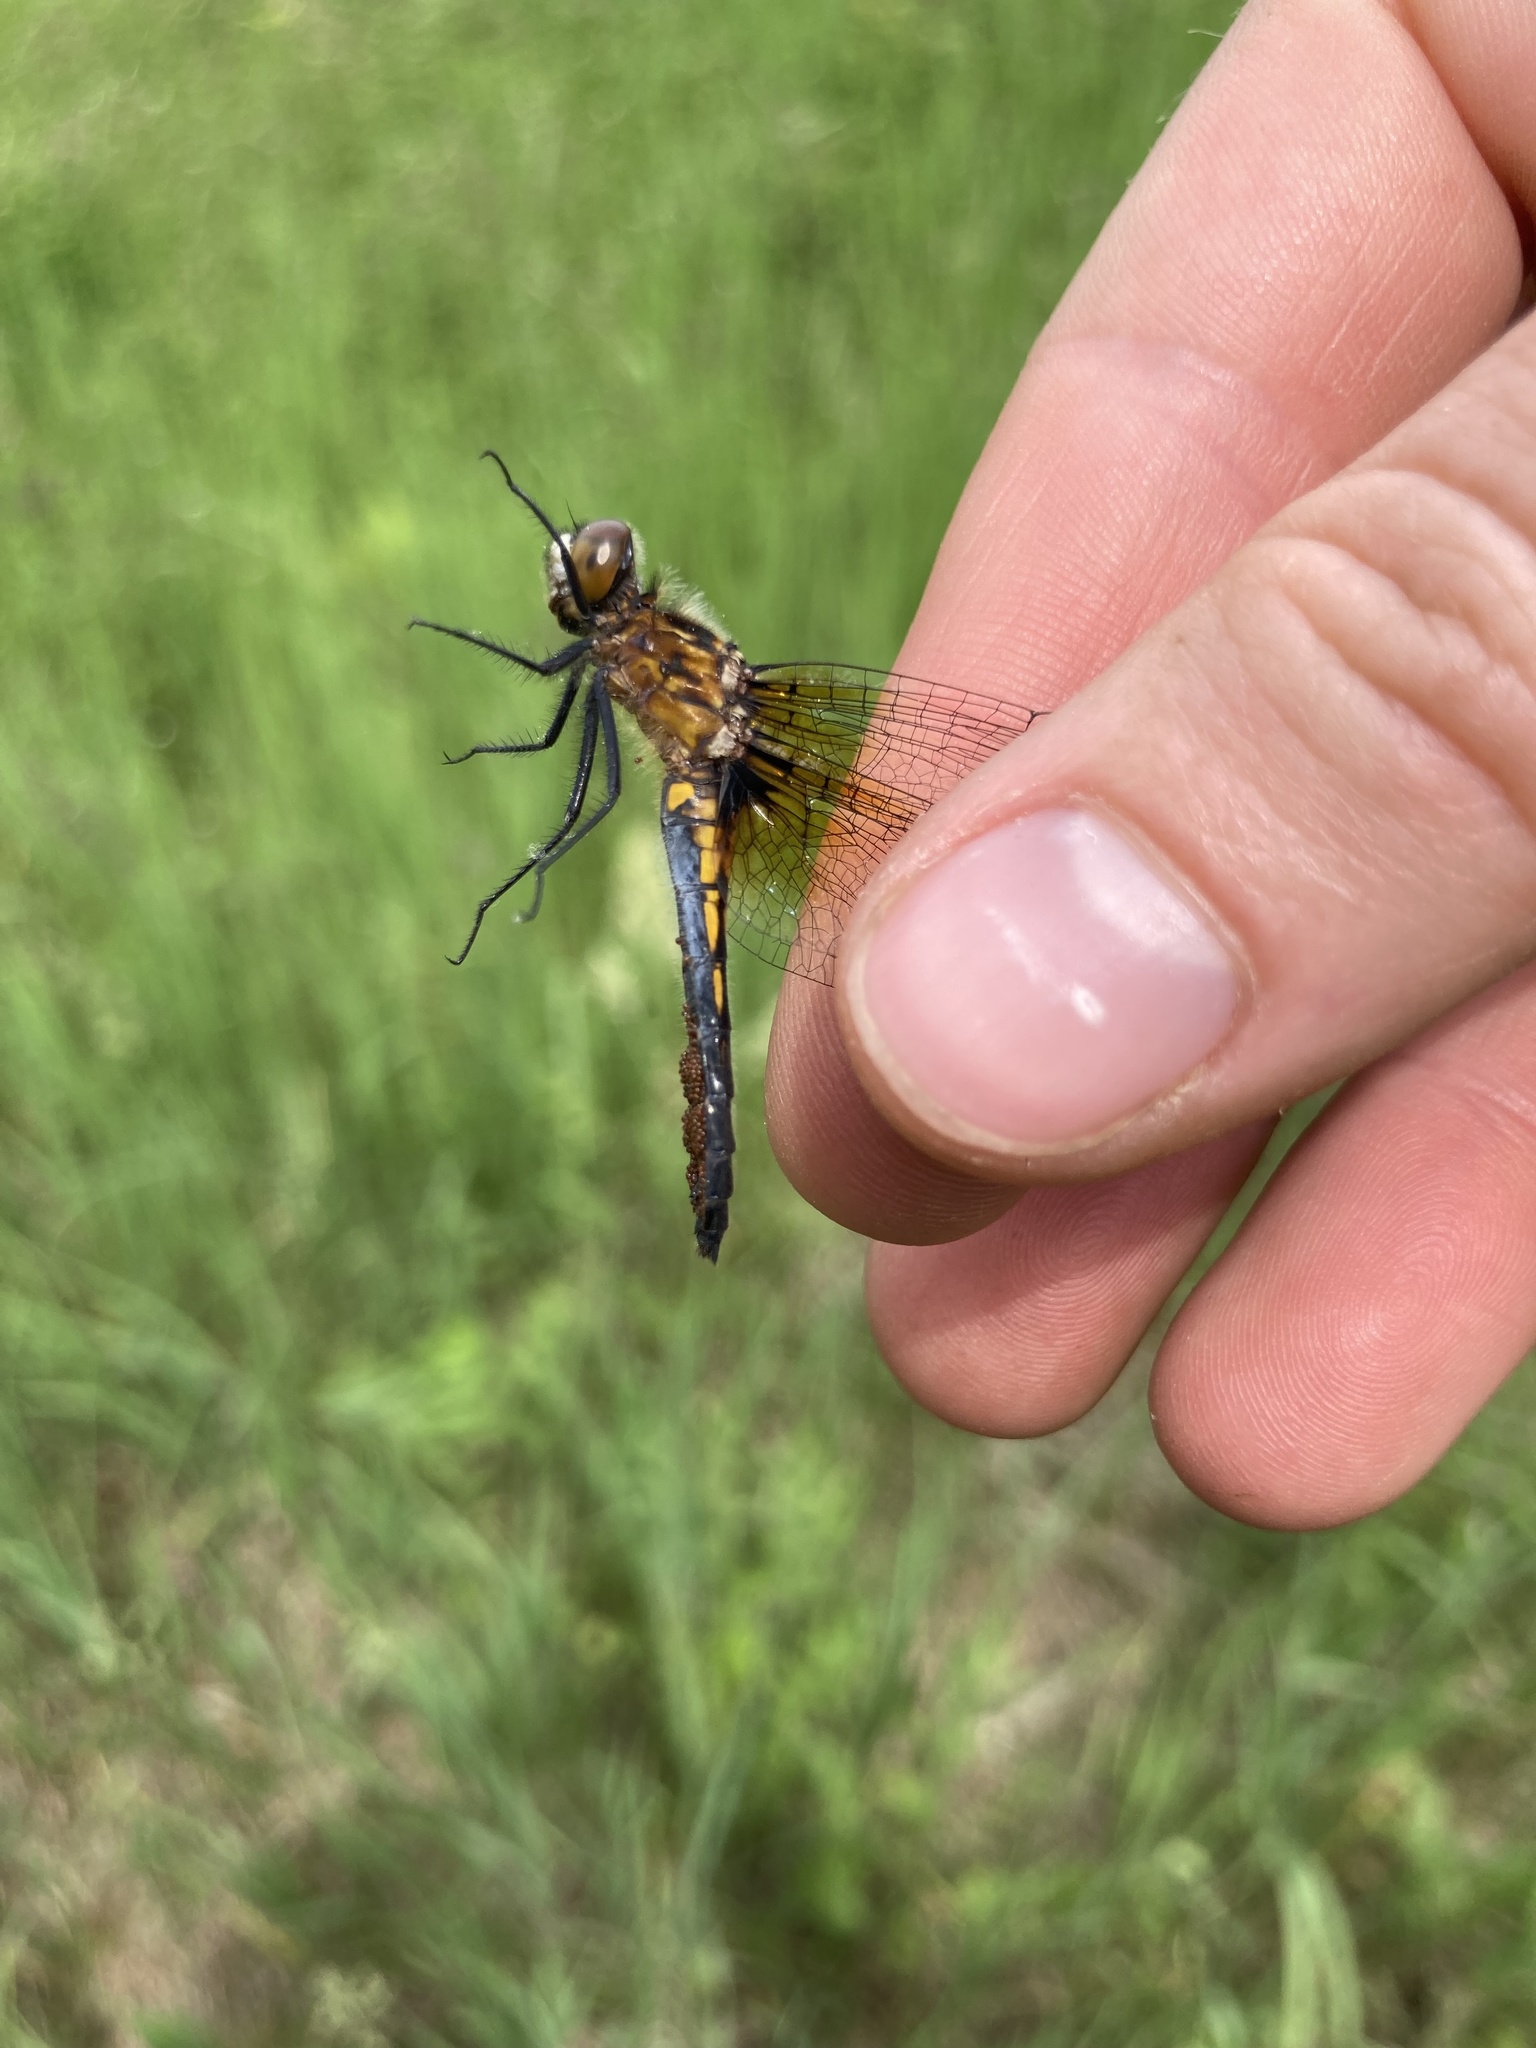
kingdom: Animalia
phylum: Arthropoda
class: Insecta
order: Odonata
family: Libellulidae
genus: Leucorrhinia
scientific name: Leucorrhinia intacta
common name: Dot-tailed whiteface
